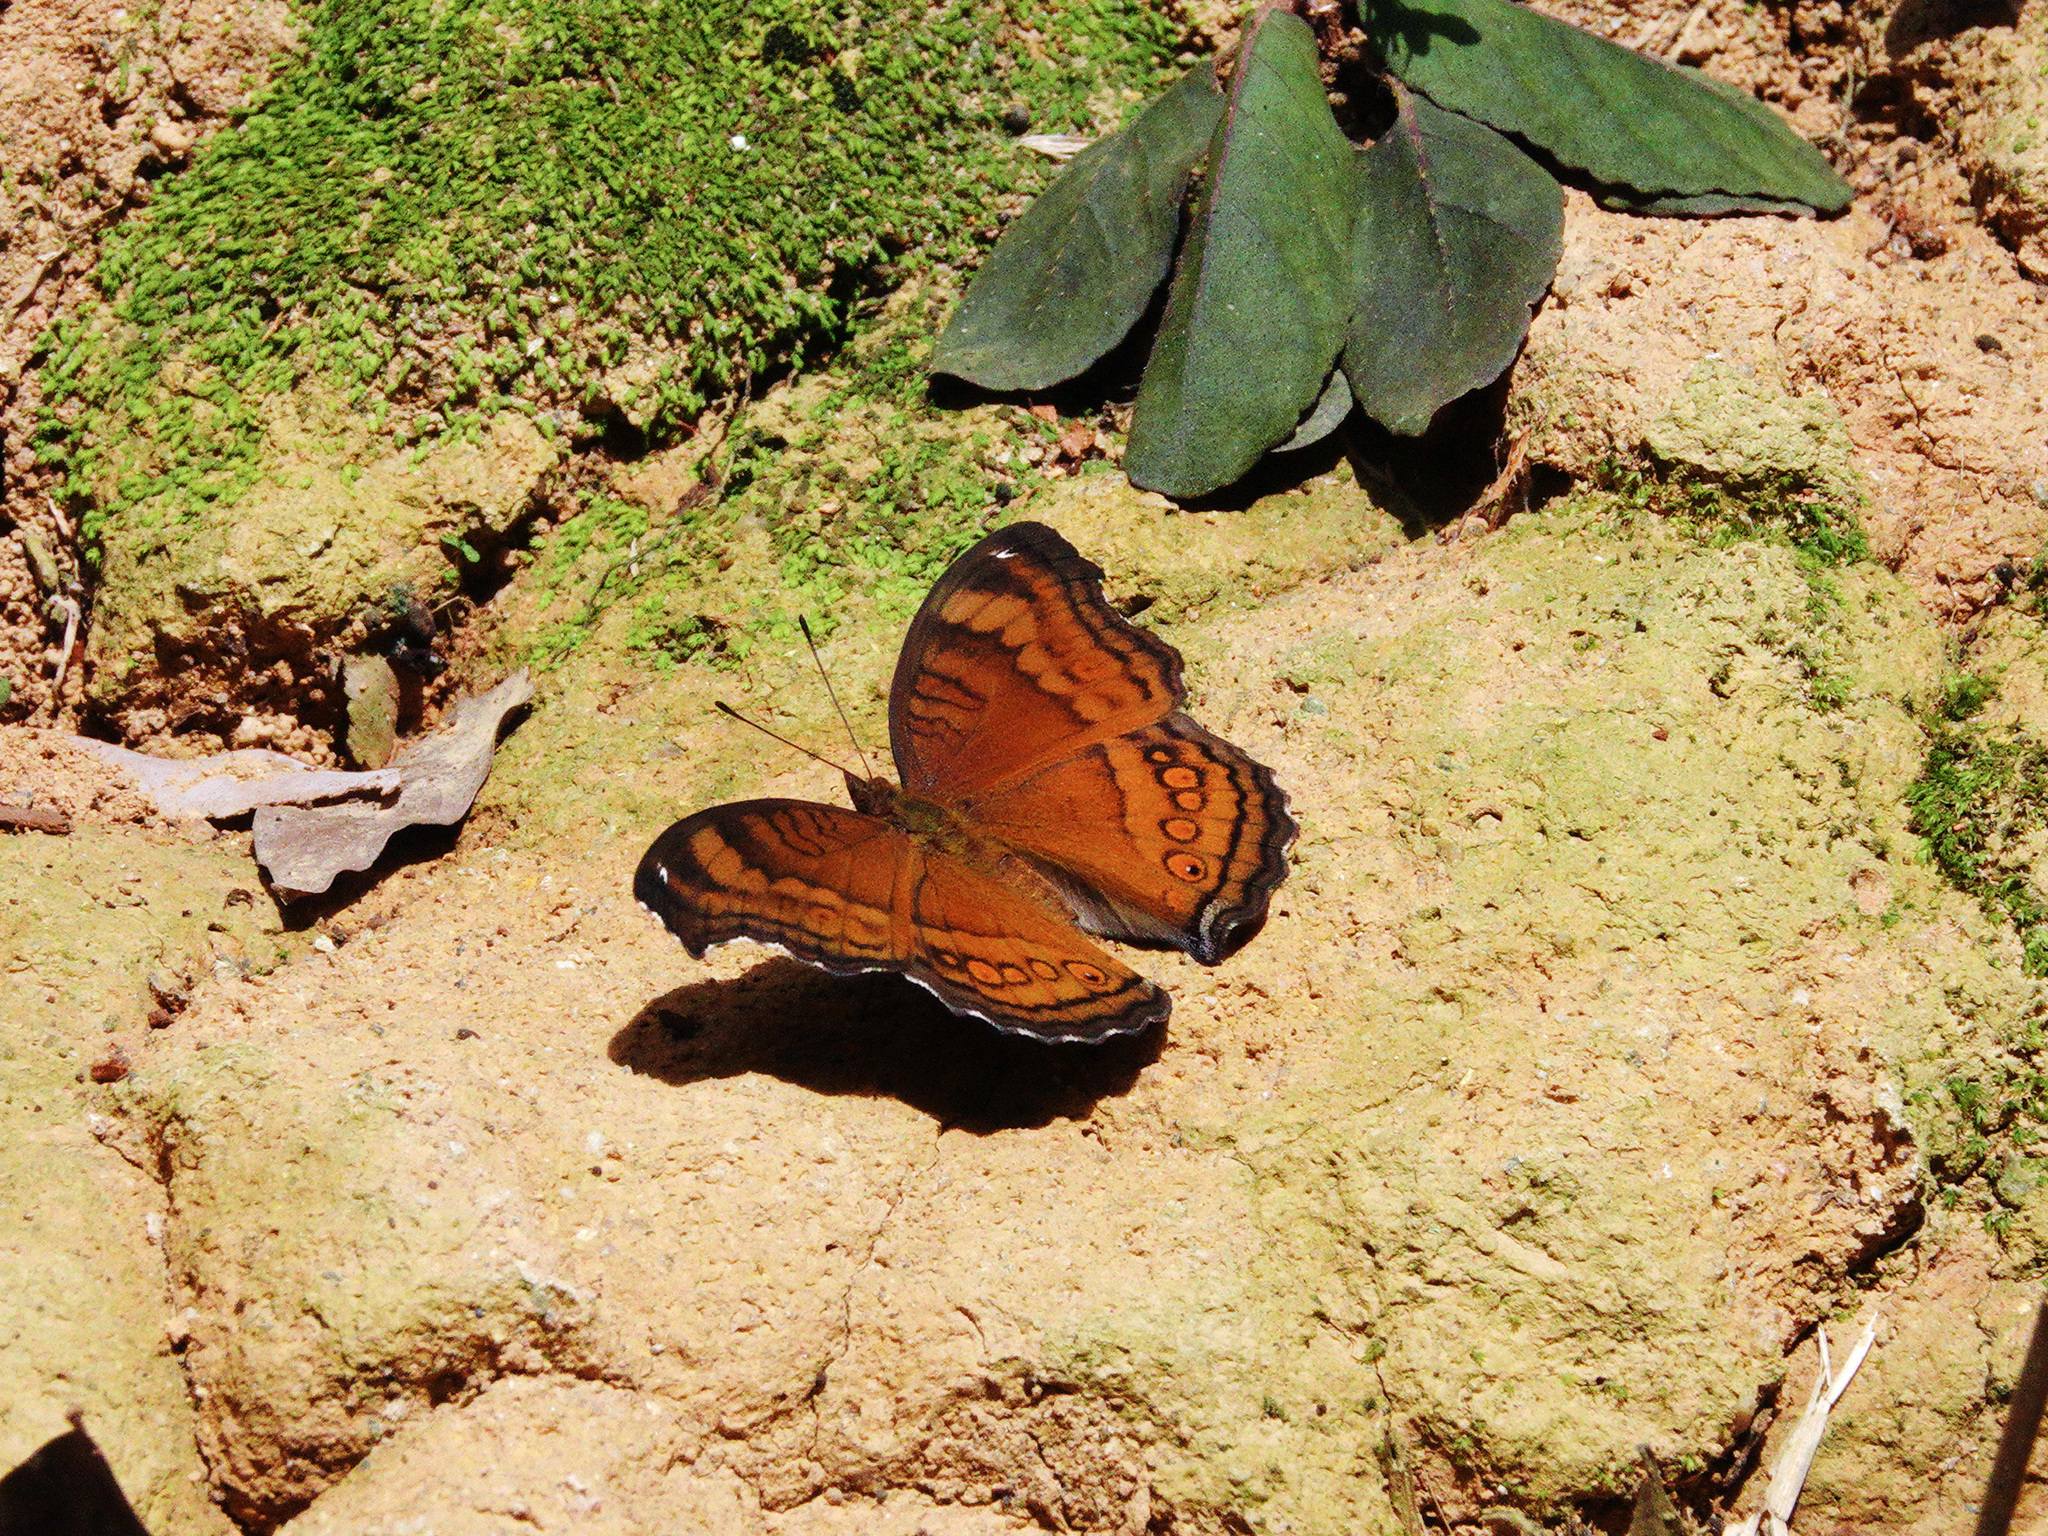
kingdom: Animalia
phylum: Arthropoda
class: Insecta
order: Lepidoptera
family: Nymphalidae
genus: Junonia
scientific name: Junonia hedonia
